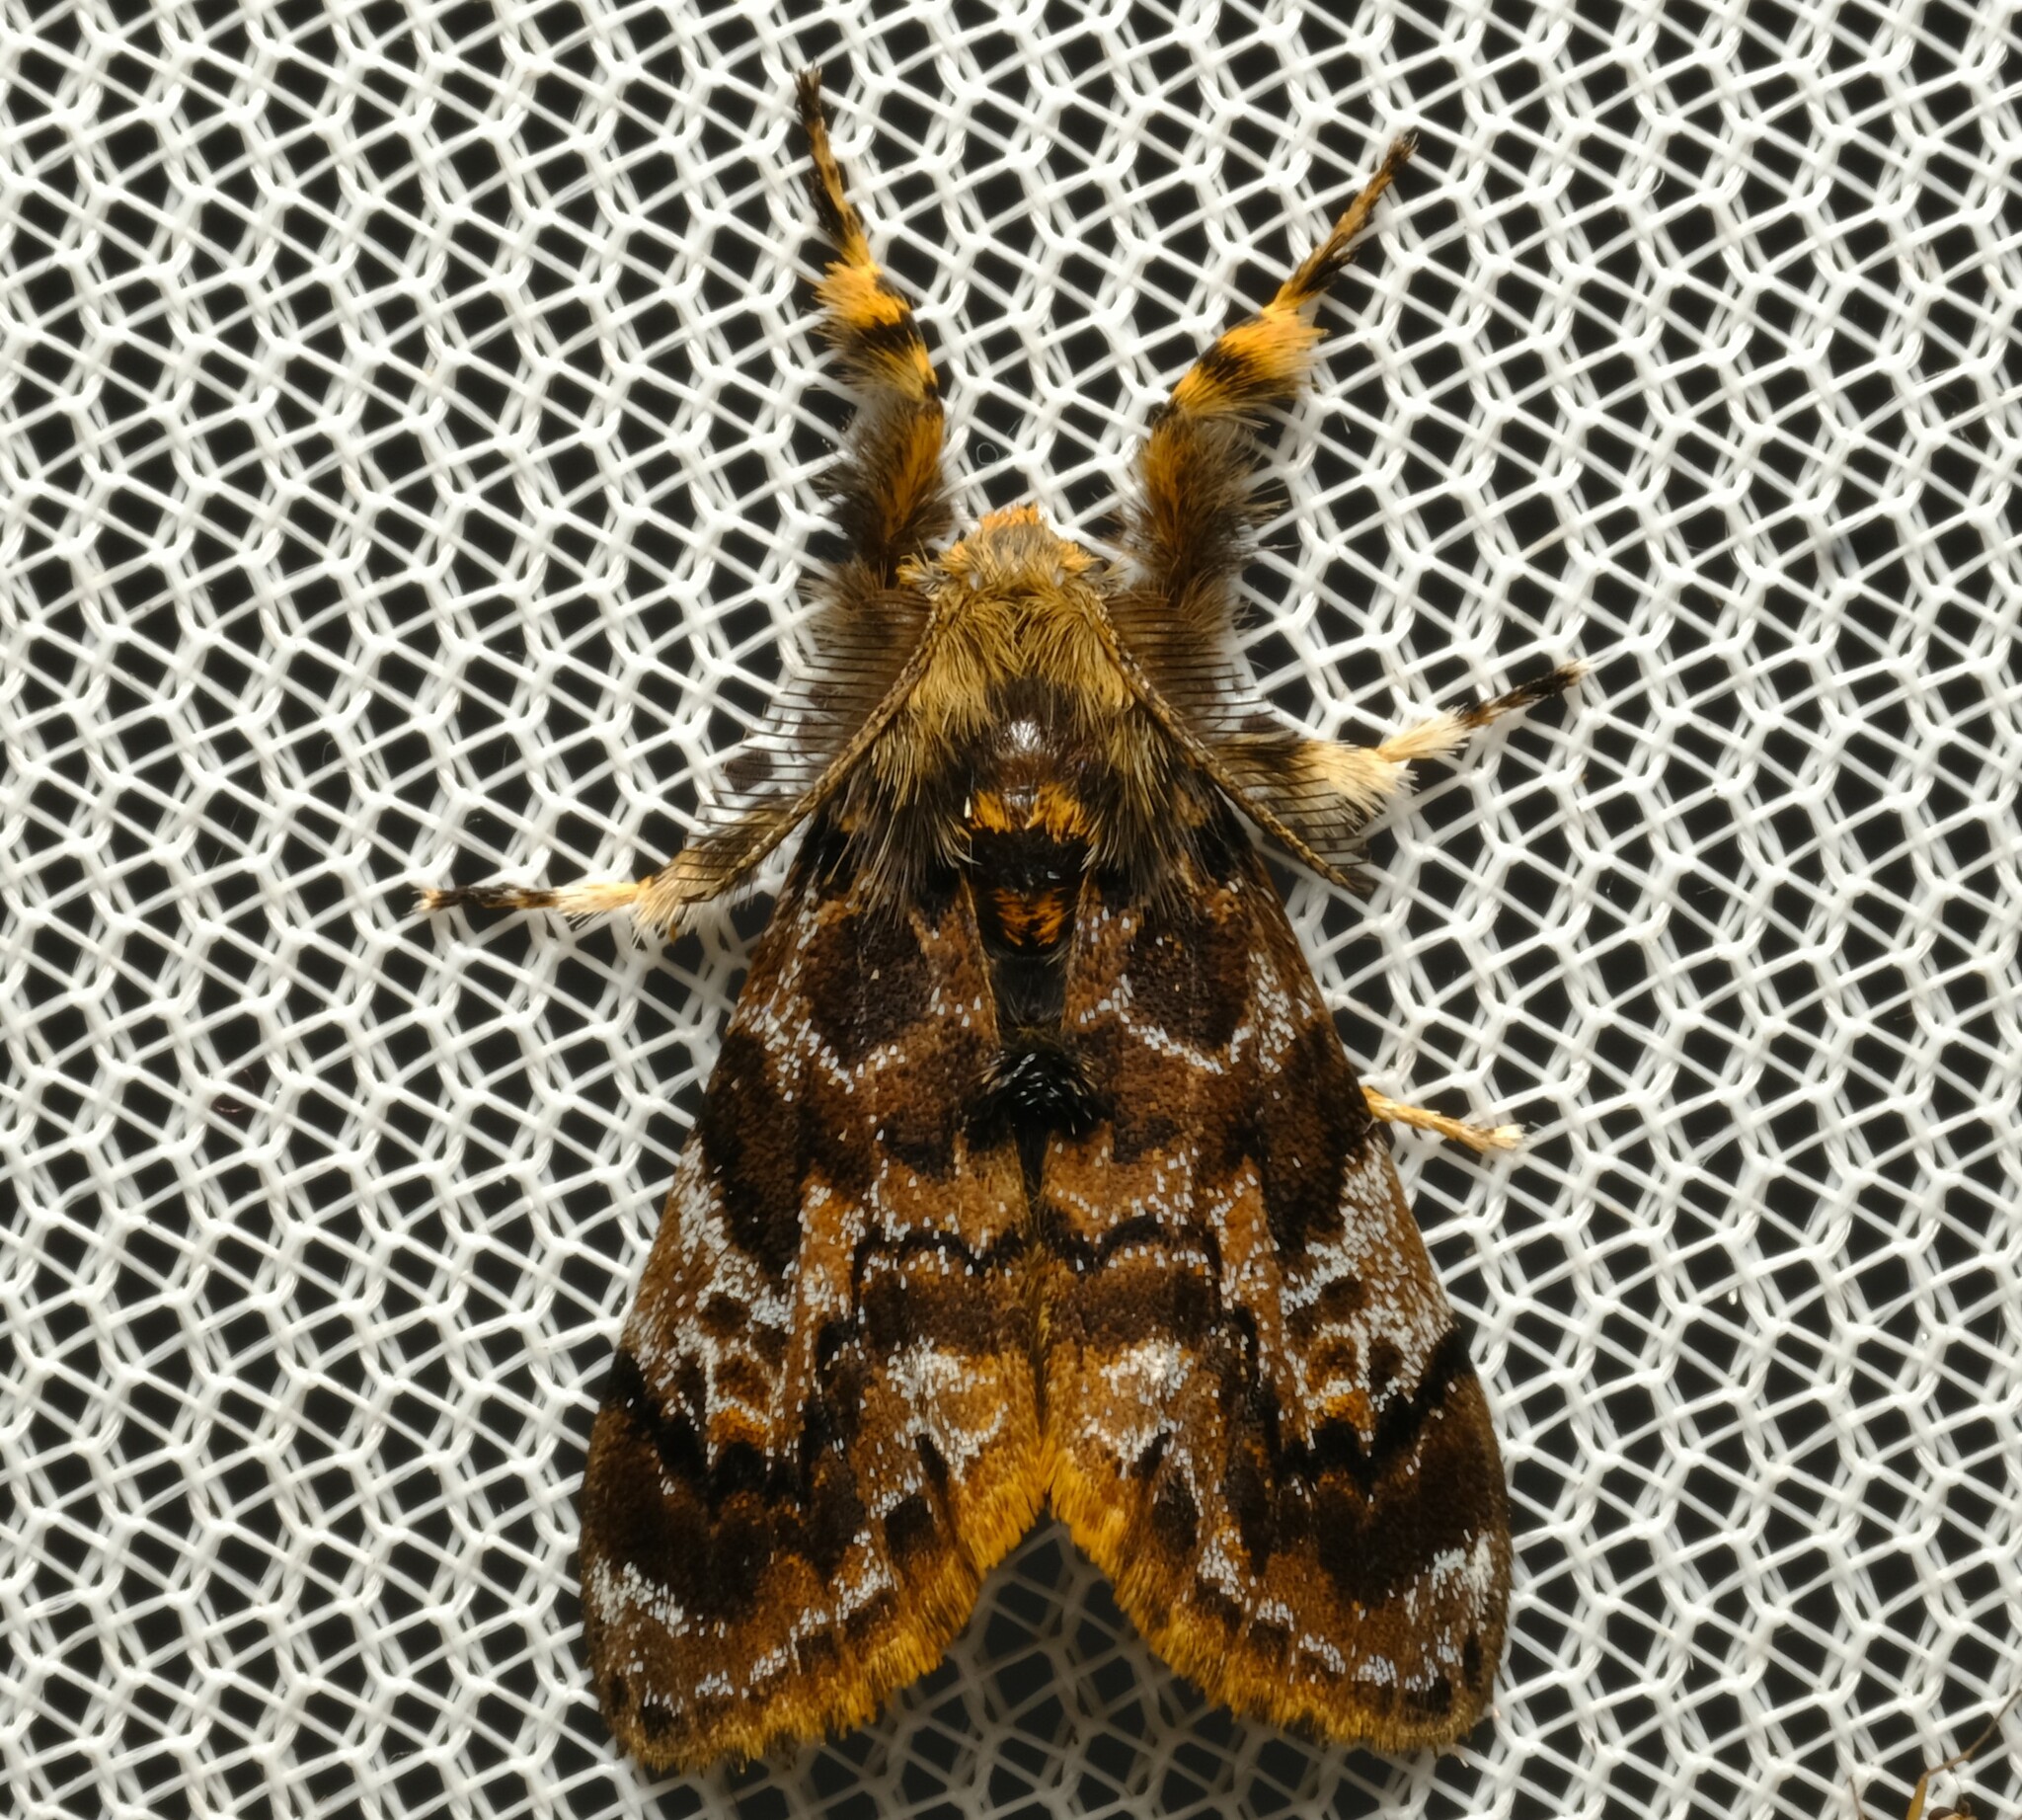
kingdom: Animalia
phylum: Arthropoda
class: Insecta
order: Lepidoptera
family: Erebidae
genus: Orgyia
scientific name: Orgyia
